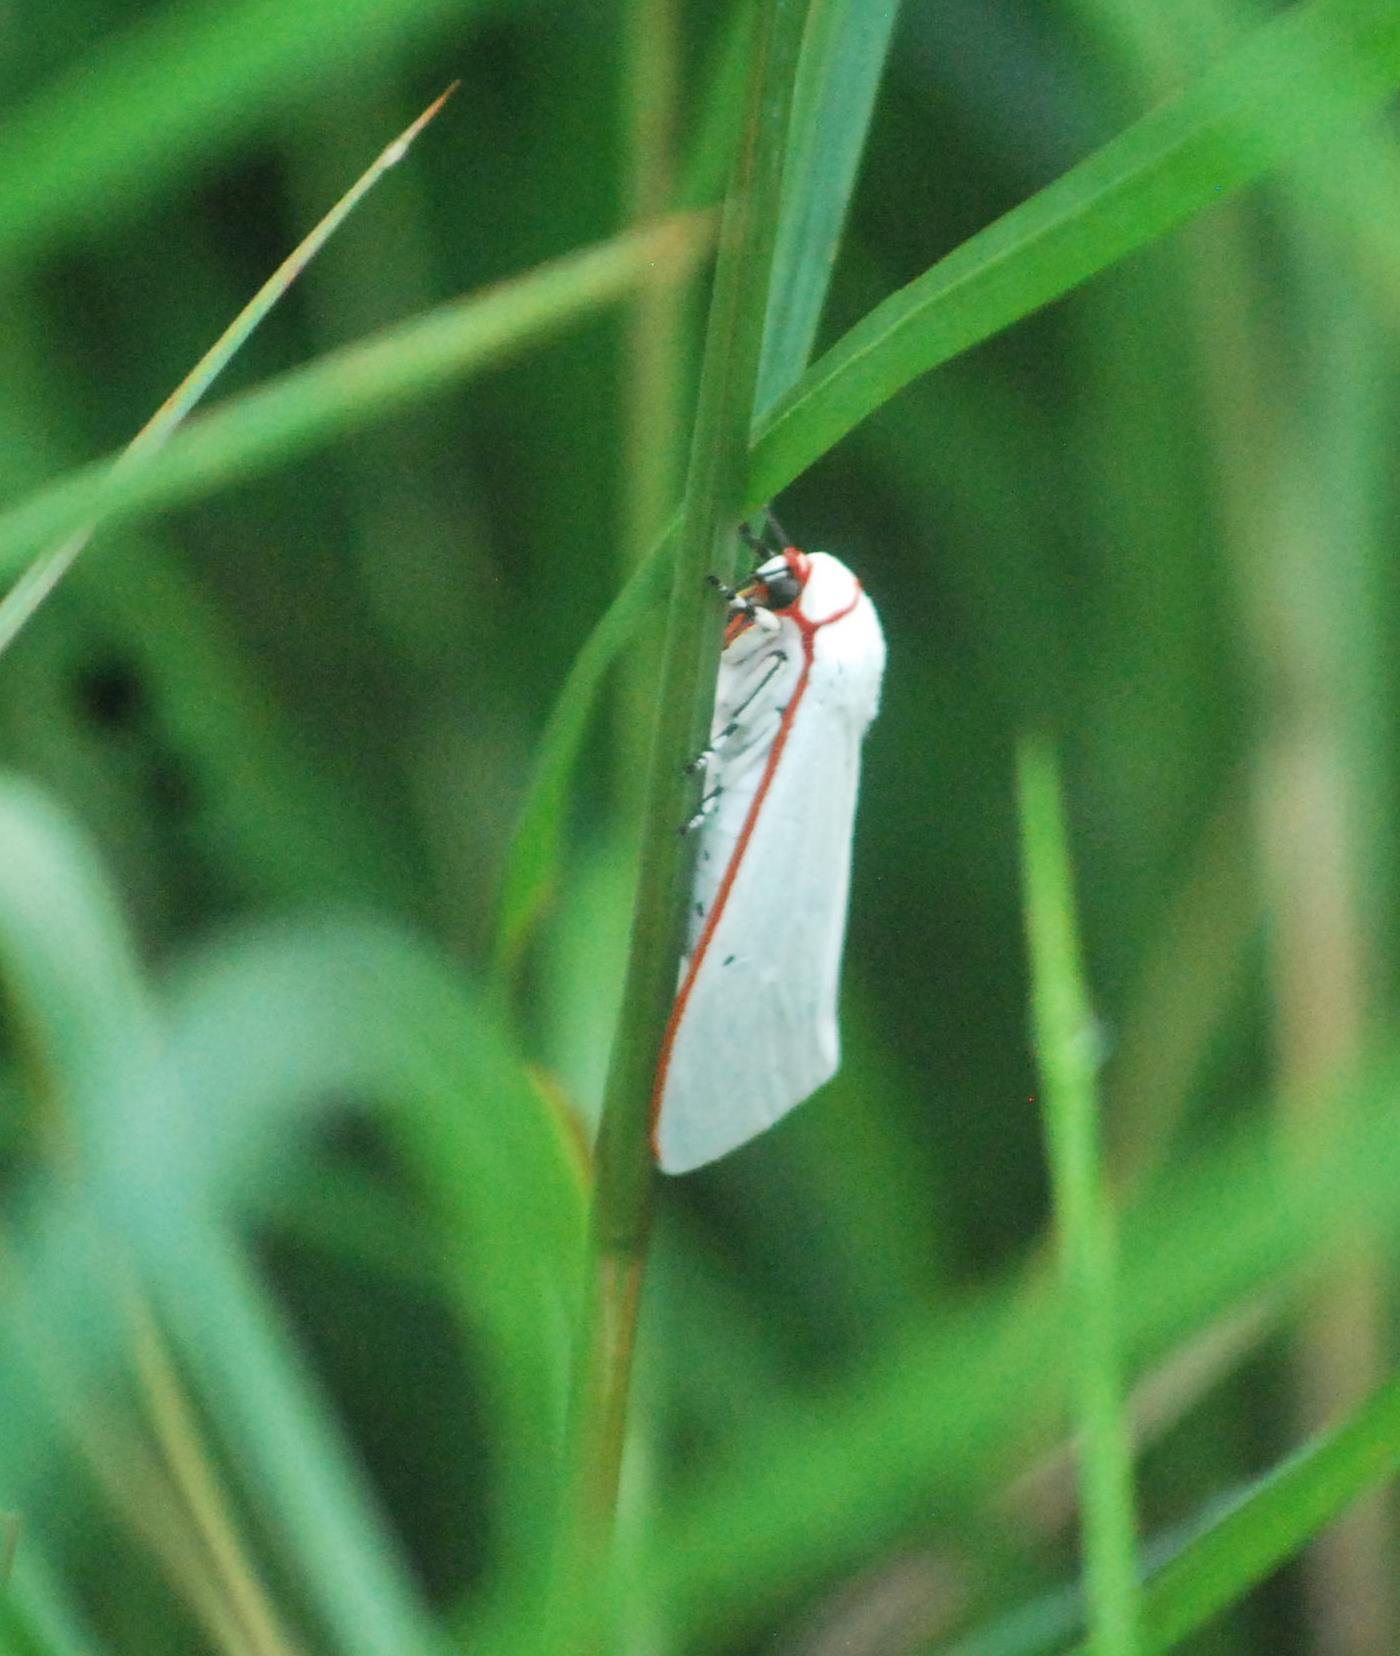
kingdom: Animalia
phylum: Arthropoda
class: Insecta
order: Lepidoptera
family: Erebidae
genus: Aloa
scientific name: Aloa lactinea
